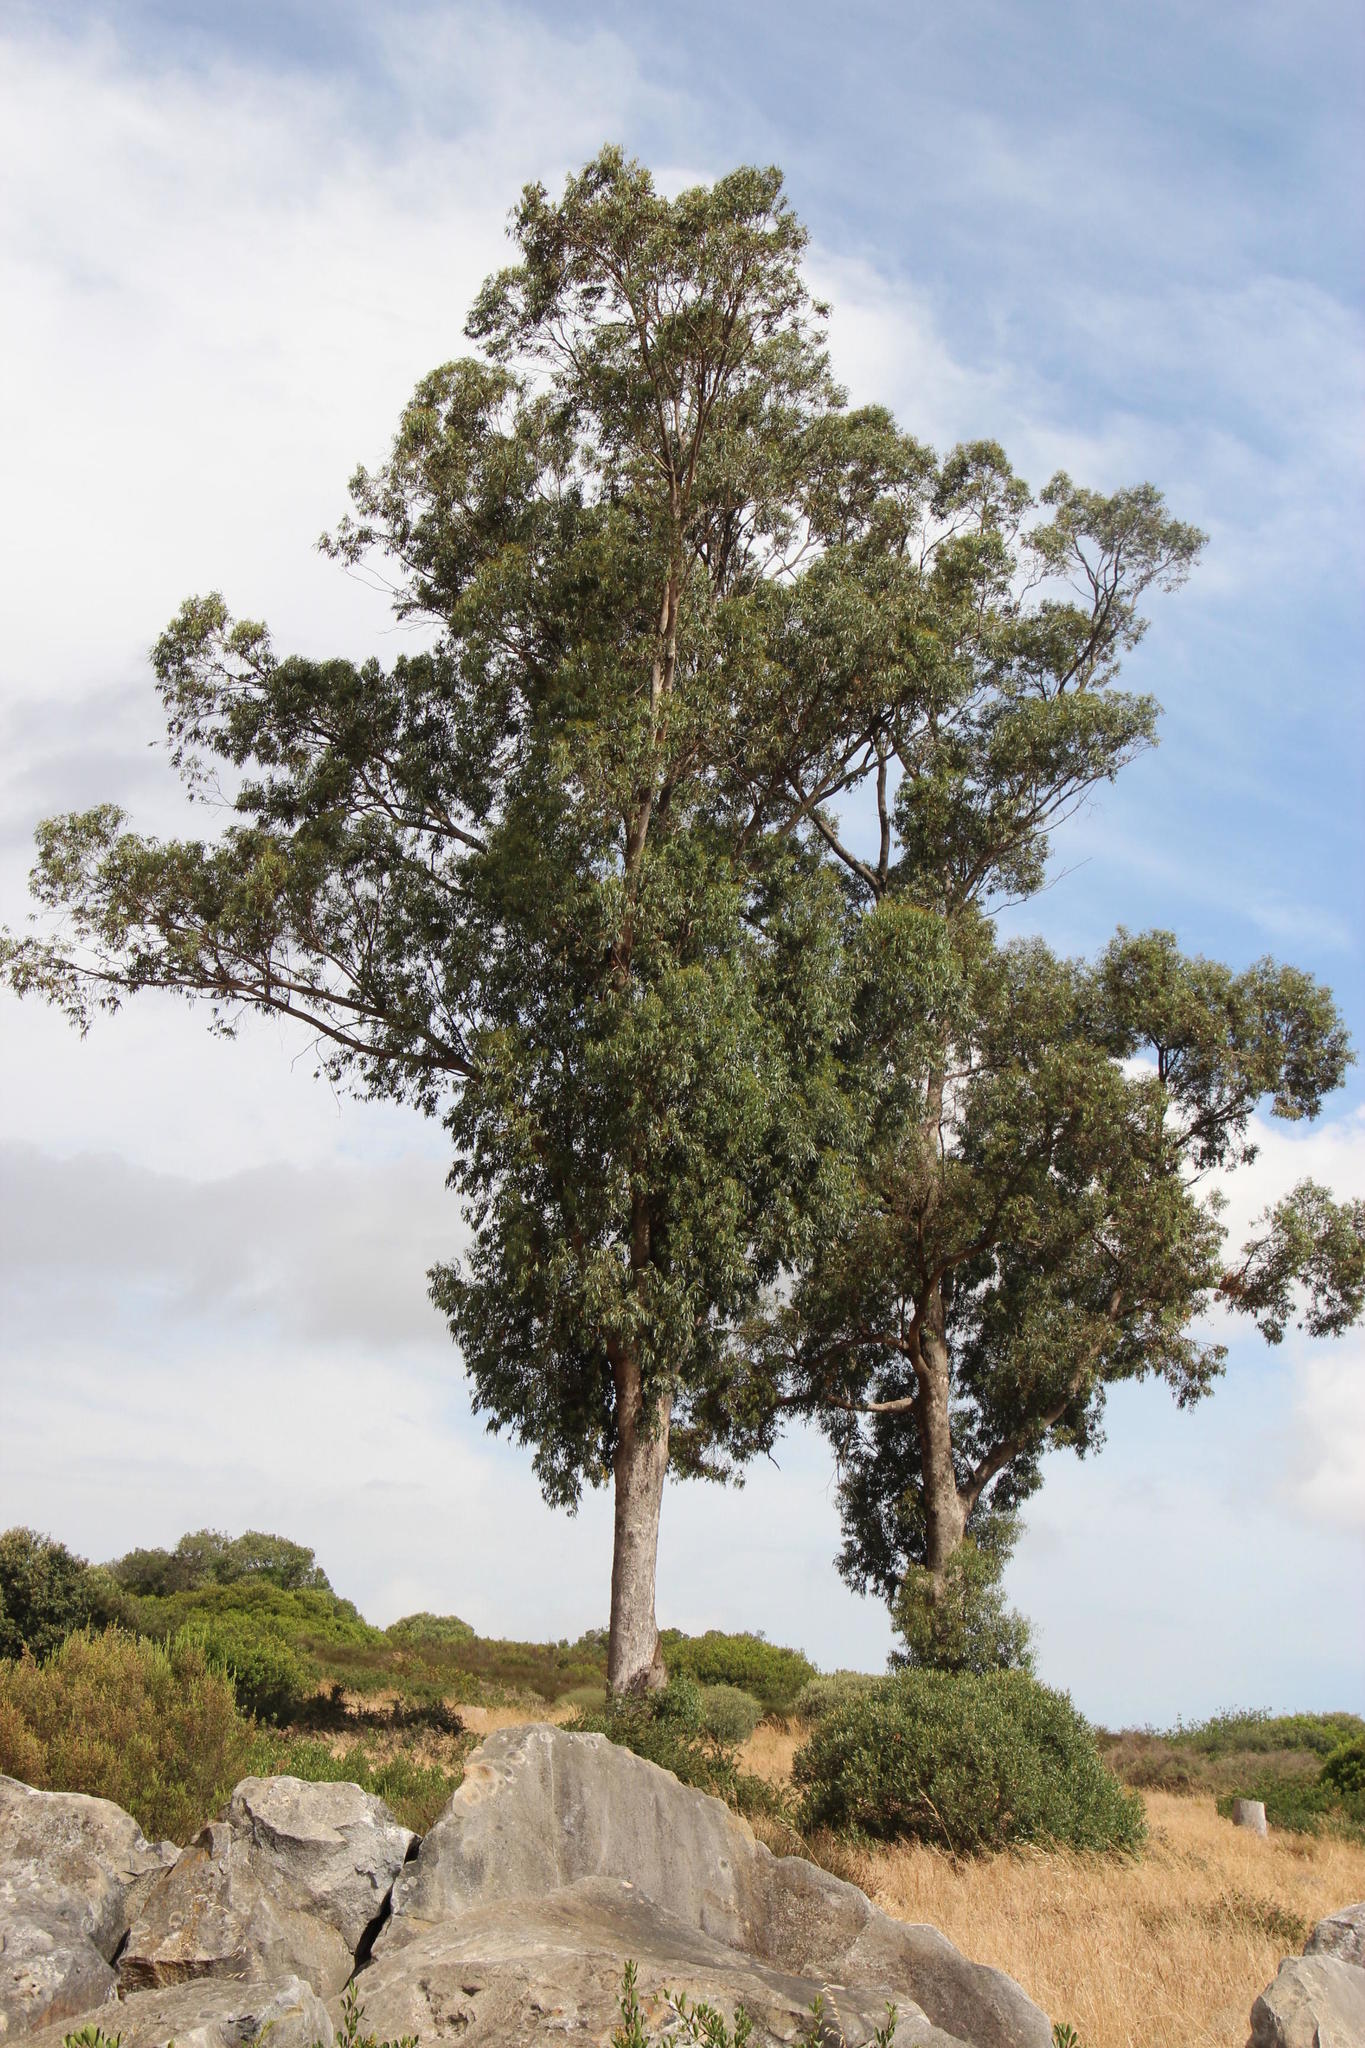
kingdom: Plantae
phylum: Tracheophyta
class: Magnoliopsida
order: Myrtales
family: Myrtaceae
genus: Eucalyptus
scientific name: Eucalyptus gomphocephala
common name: Tuart
